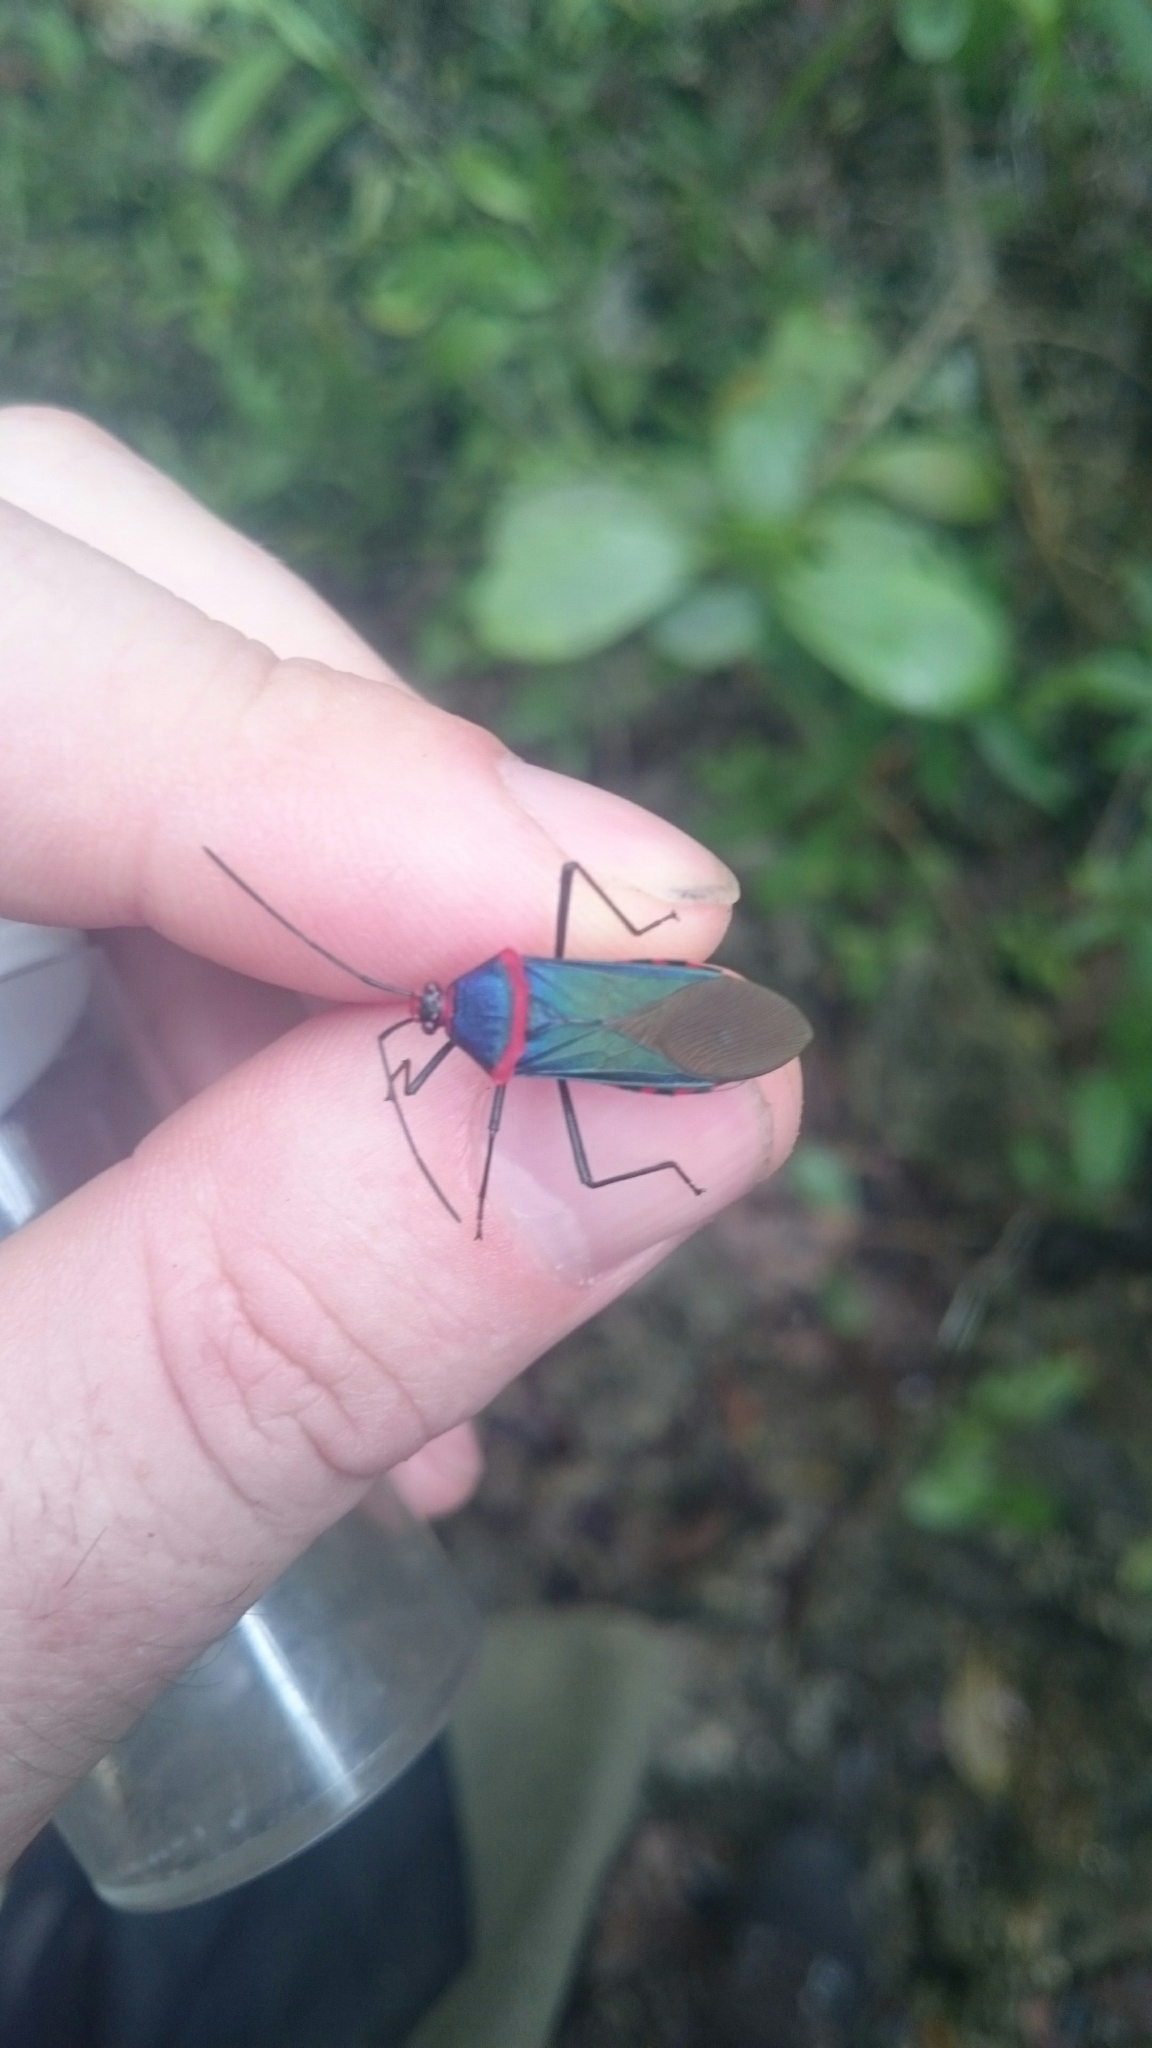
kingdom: Animalia
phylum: Arthropoda
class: Insecta
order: Hemiptera
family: Coreidae
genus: Sphictyrtus
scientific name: Sphictyrtus caymanensis
